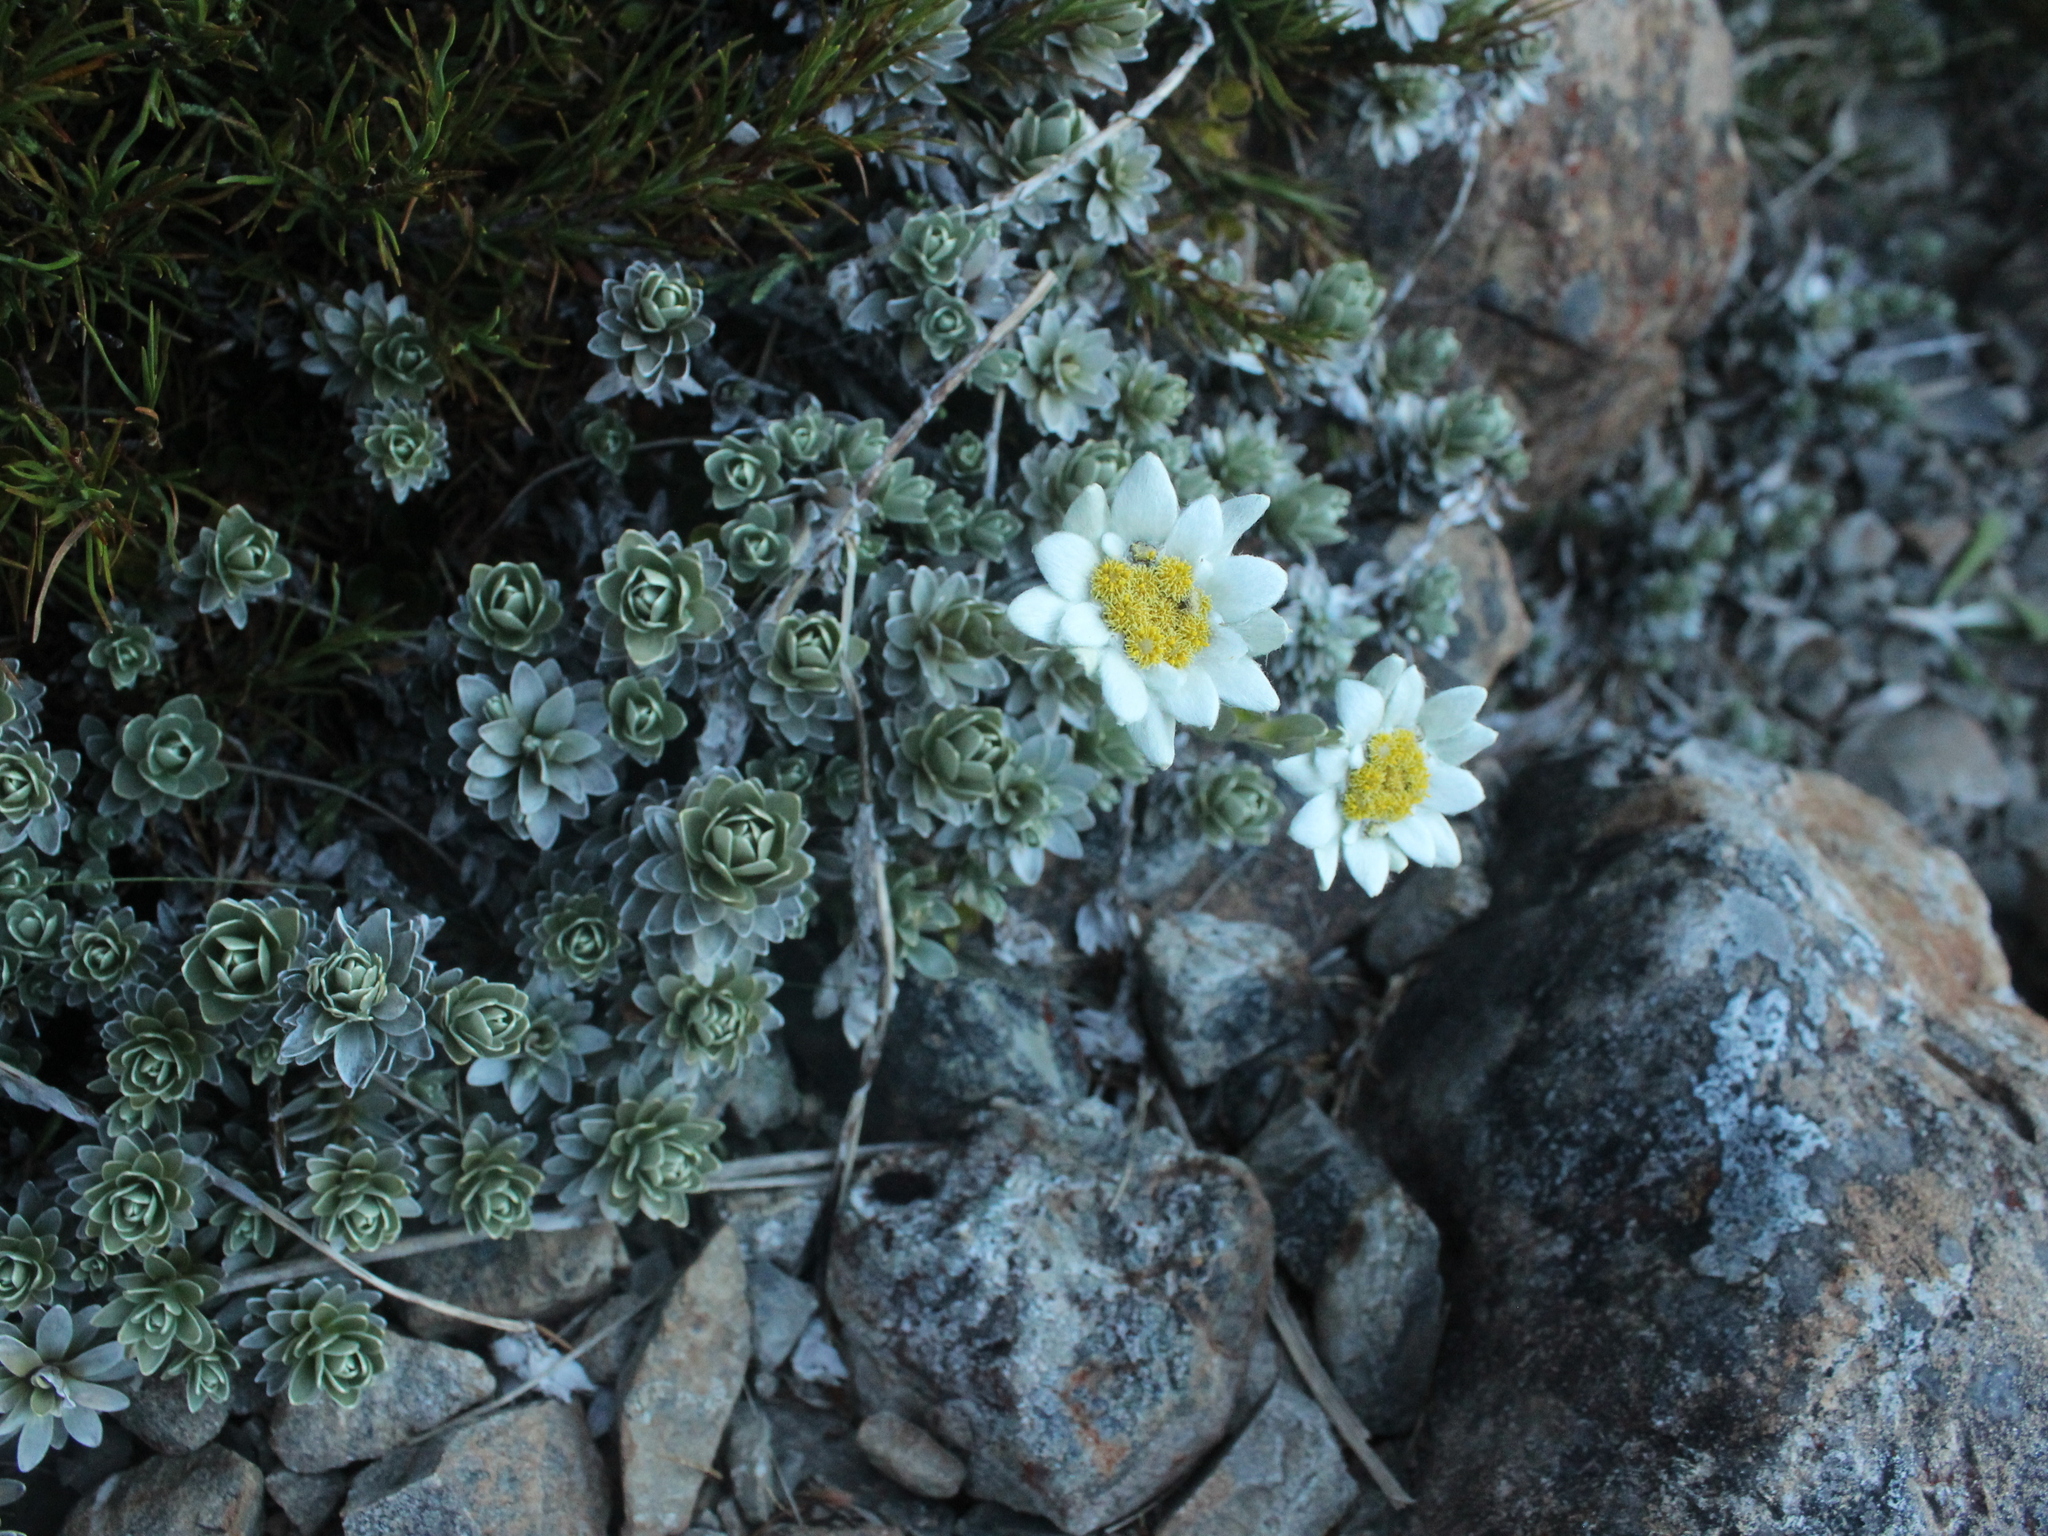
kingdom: Plantae
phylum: Tracheophyta
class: Magnoliopsida
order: Asterales
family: Asteraceae
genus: Leucogenes
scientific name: Leucogenes leontopodium
